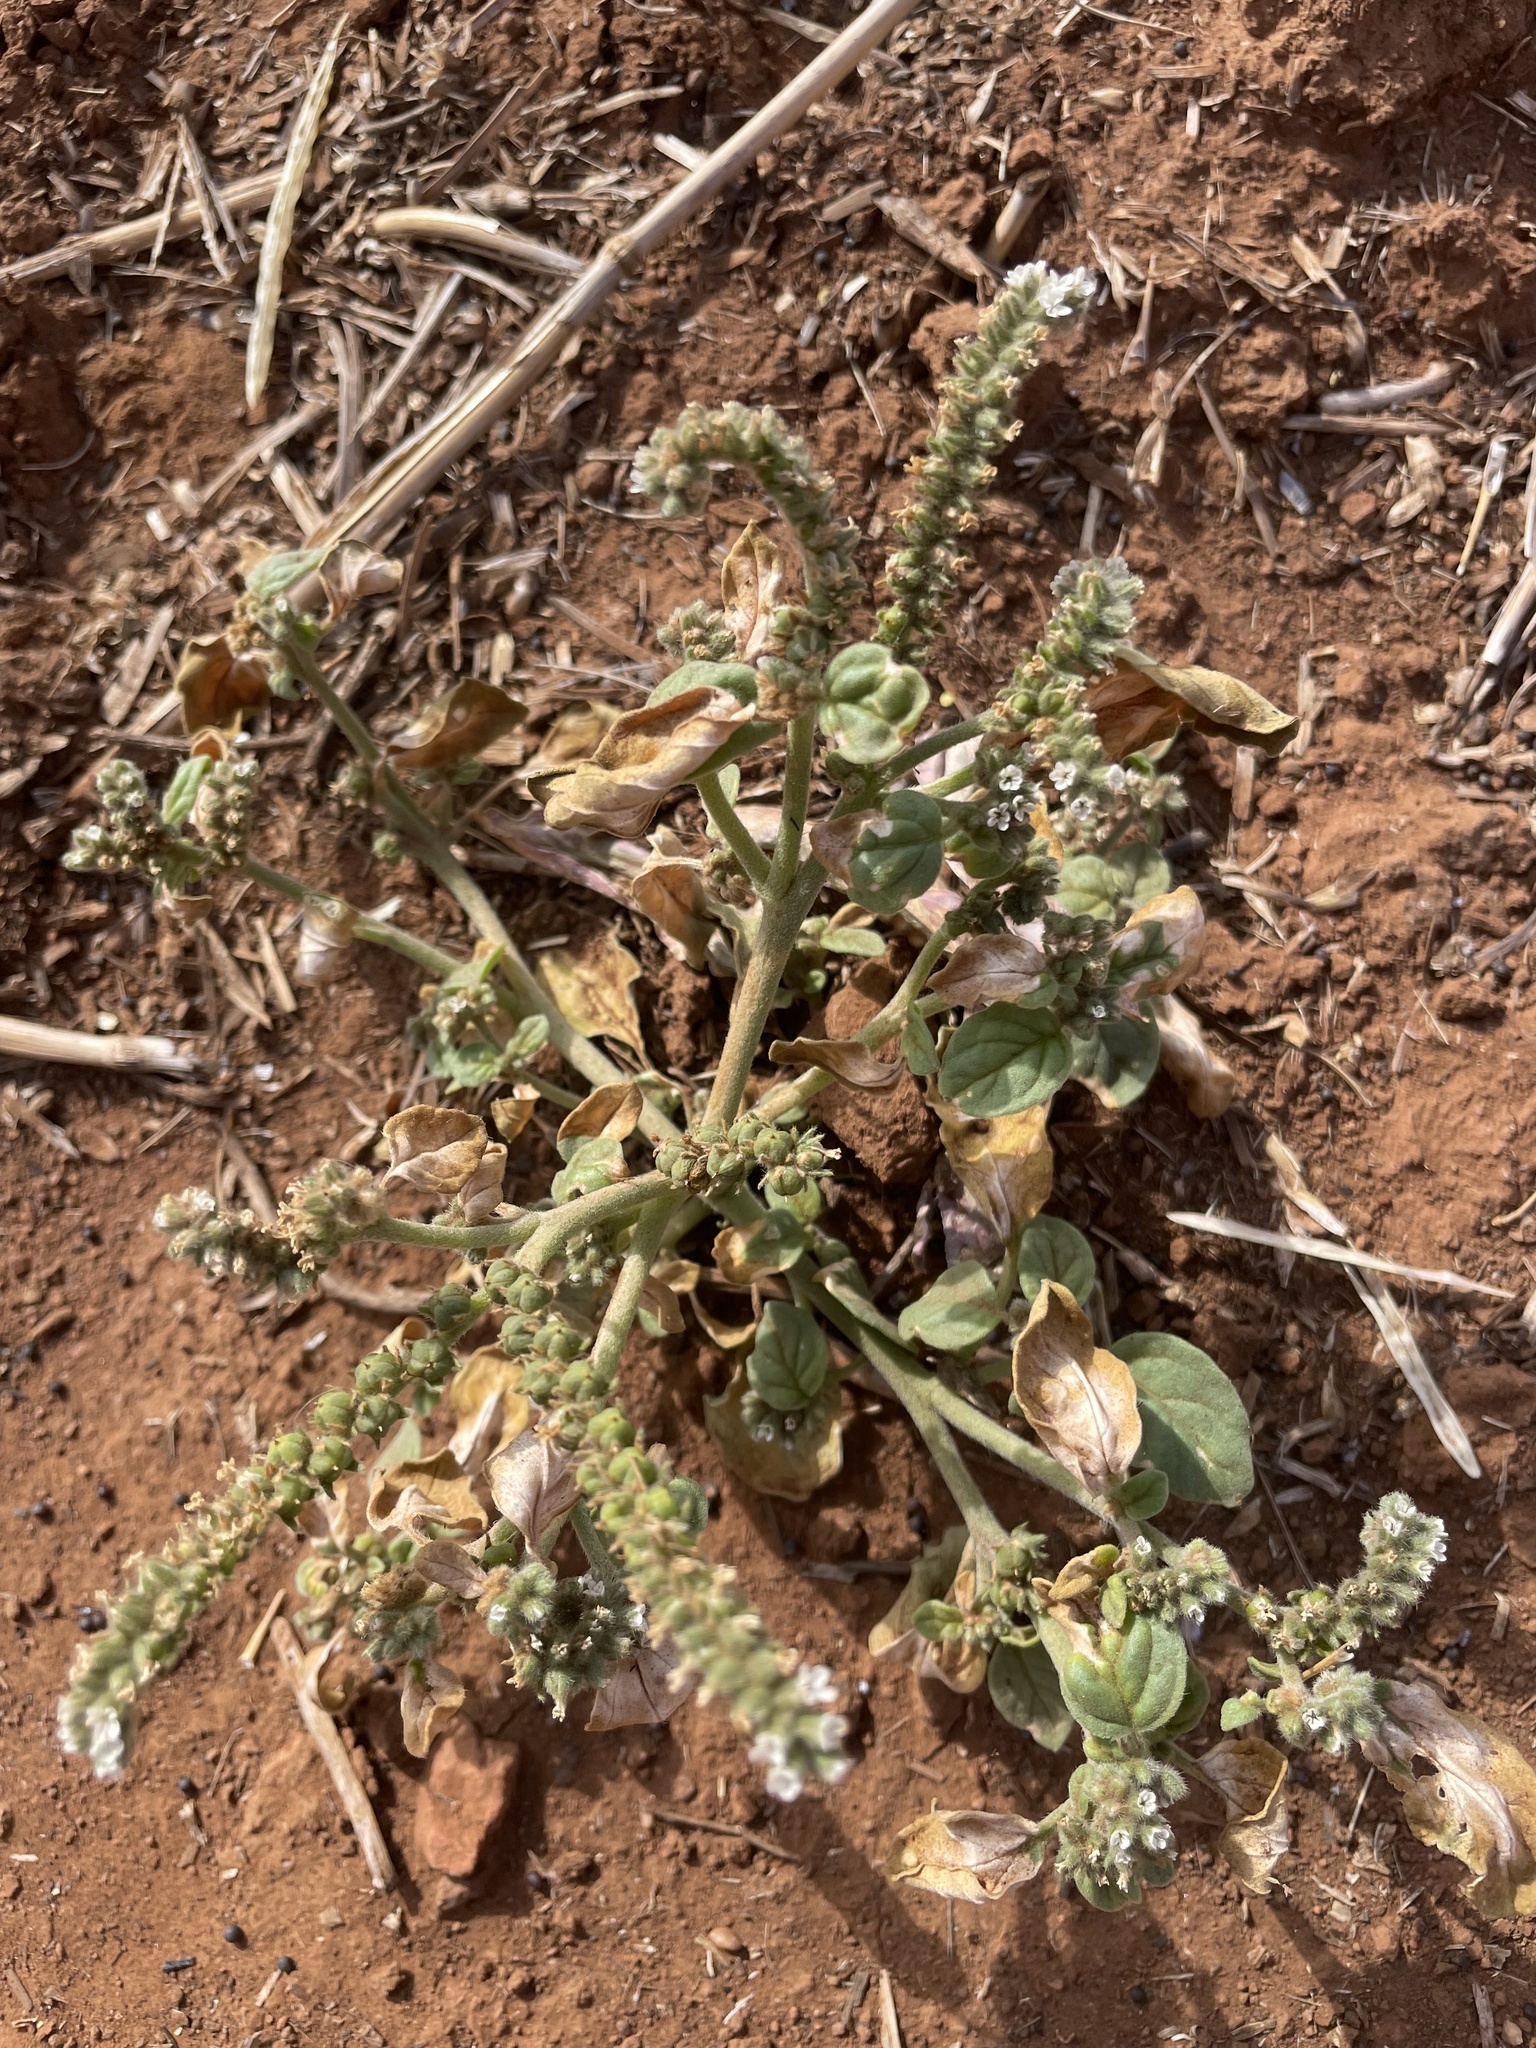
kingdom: Plantae
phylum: Tracheophyta
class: Magnoliopsida
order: Boraginales
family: Heliotropiaceae
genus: Heliotropium
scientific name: Heliotropium europaeum
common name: European heliotrope
